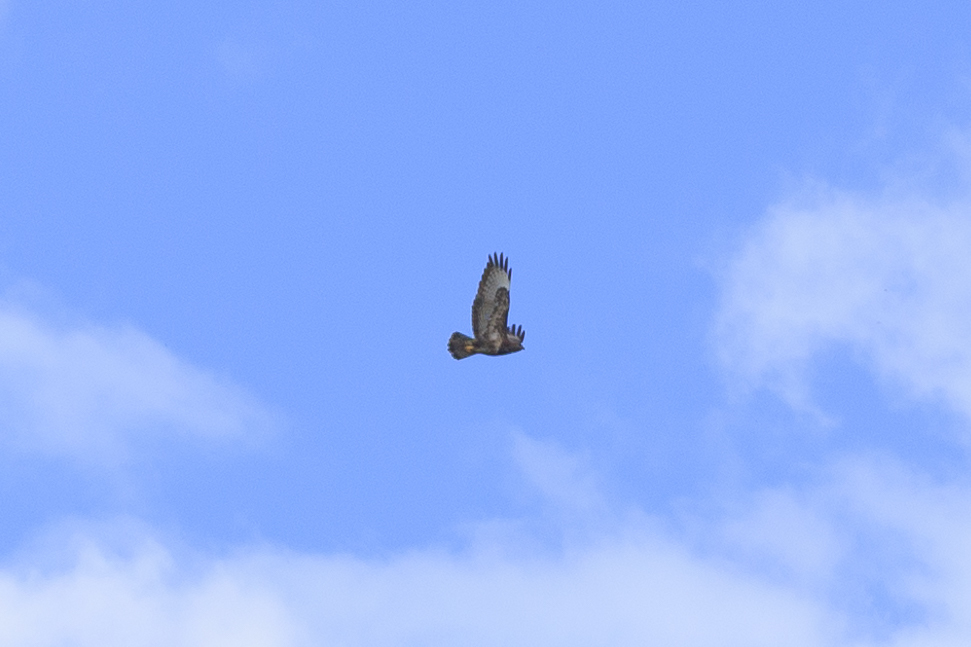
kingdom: Animalia
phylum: Chordata
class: Aves
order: Accipitriformes
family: Accipitridae
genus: Buteo
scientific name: Buteo buteo
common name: Common buzzard
